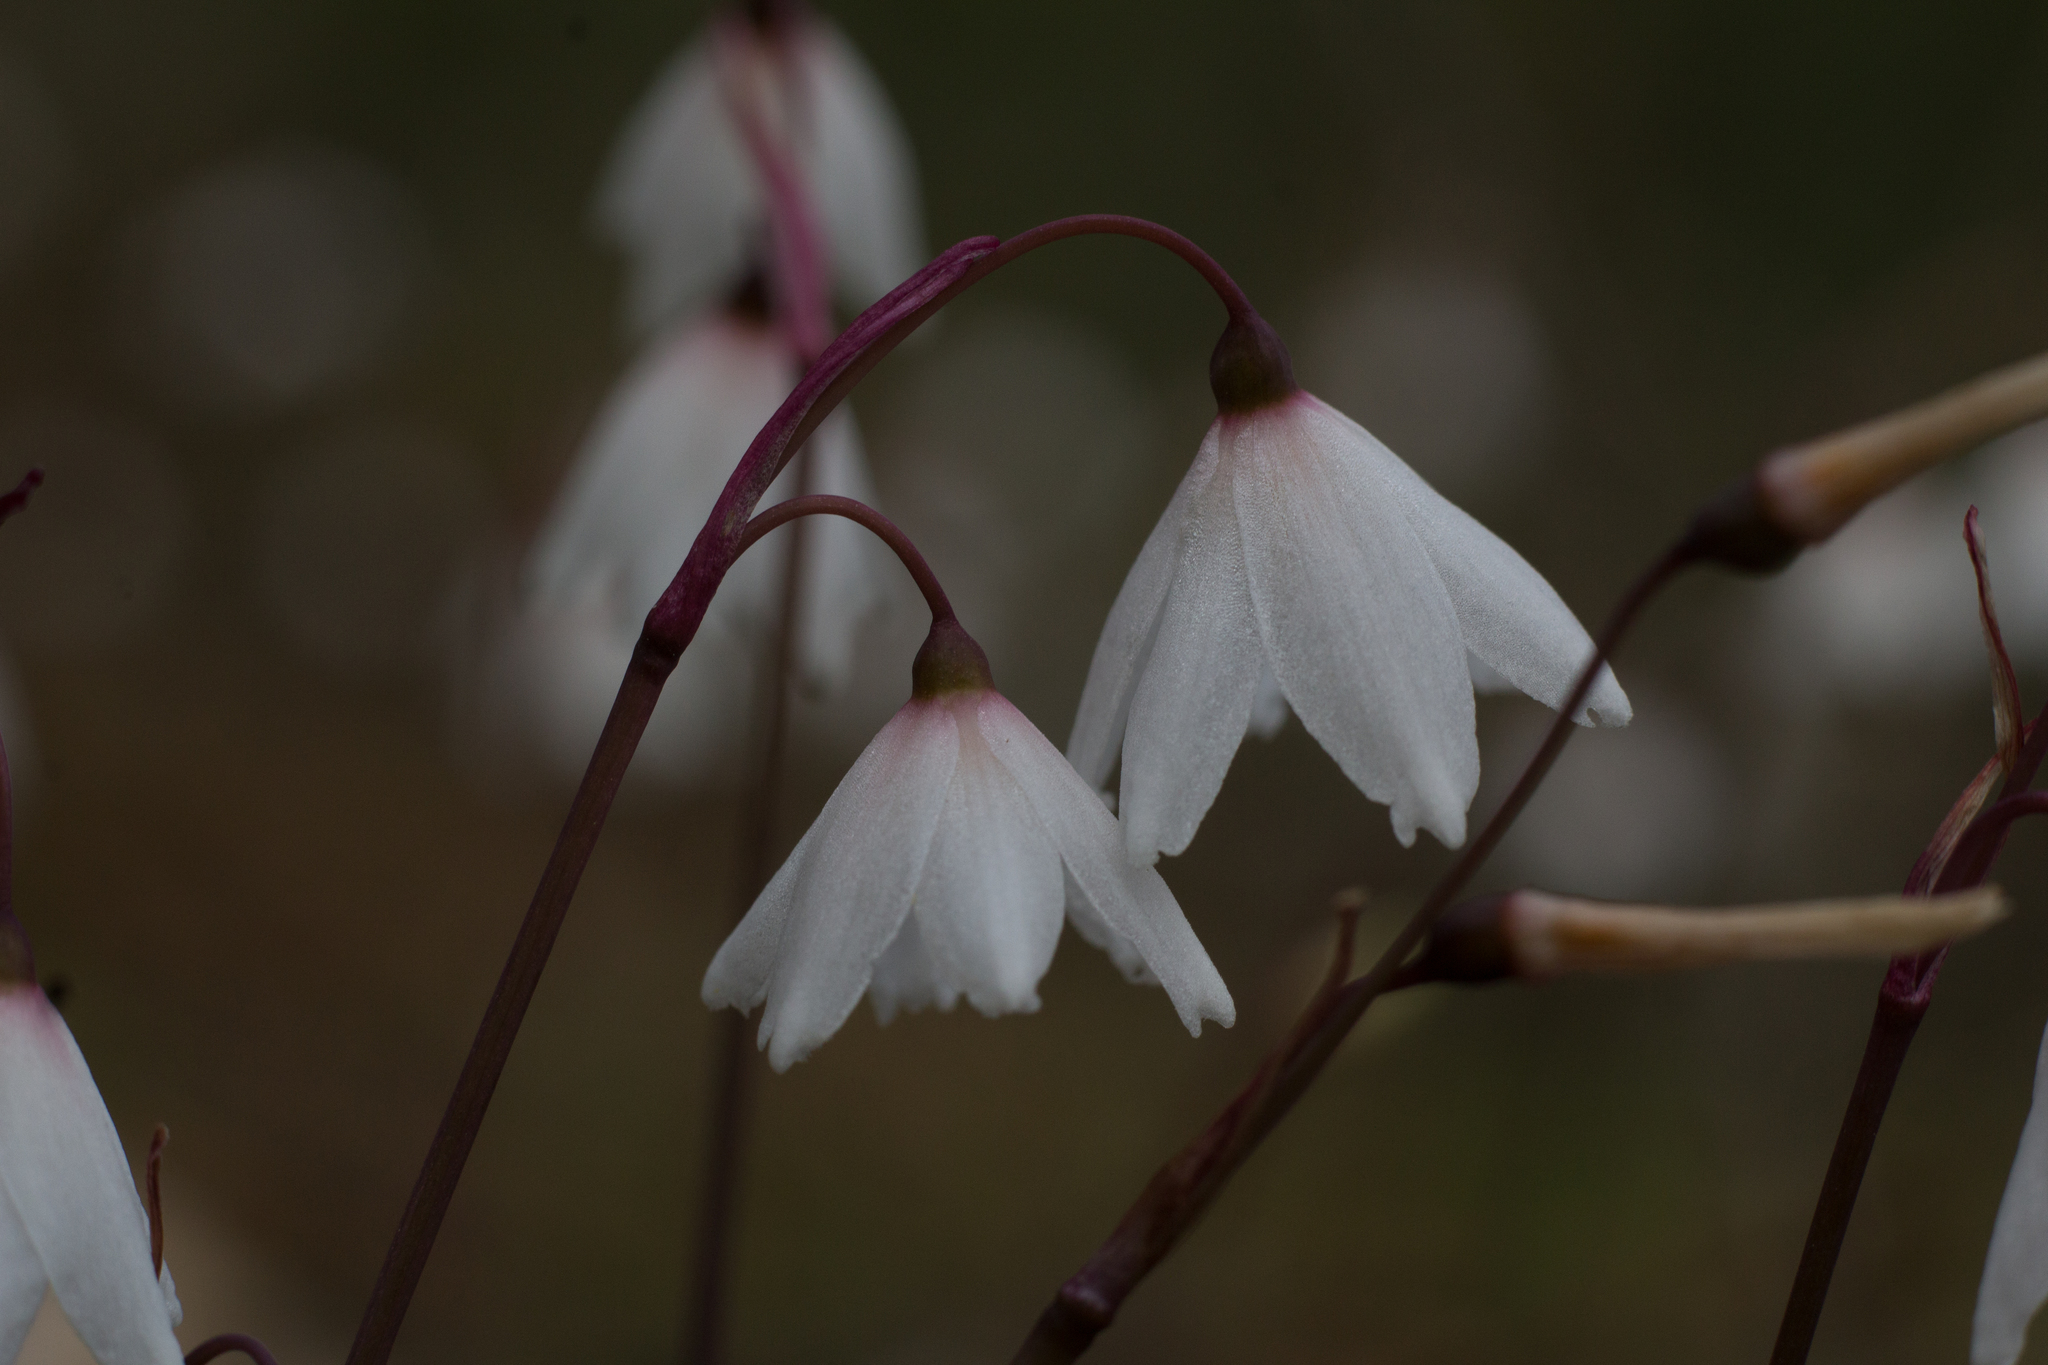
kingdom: Plantae
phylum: Tracheophyta
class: Liliopsida
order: Asparagales
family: Amaryllidaceae
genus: Acis
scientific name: Acis autumnalis
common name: Autumn snowflake
